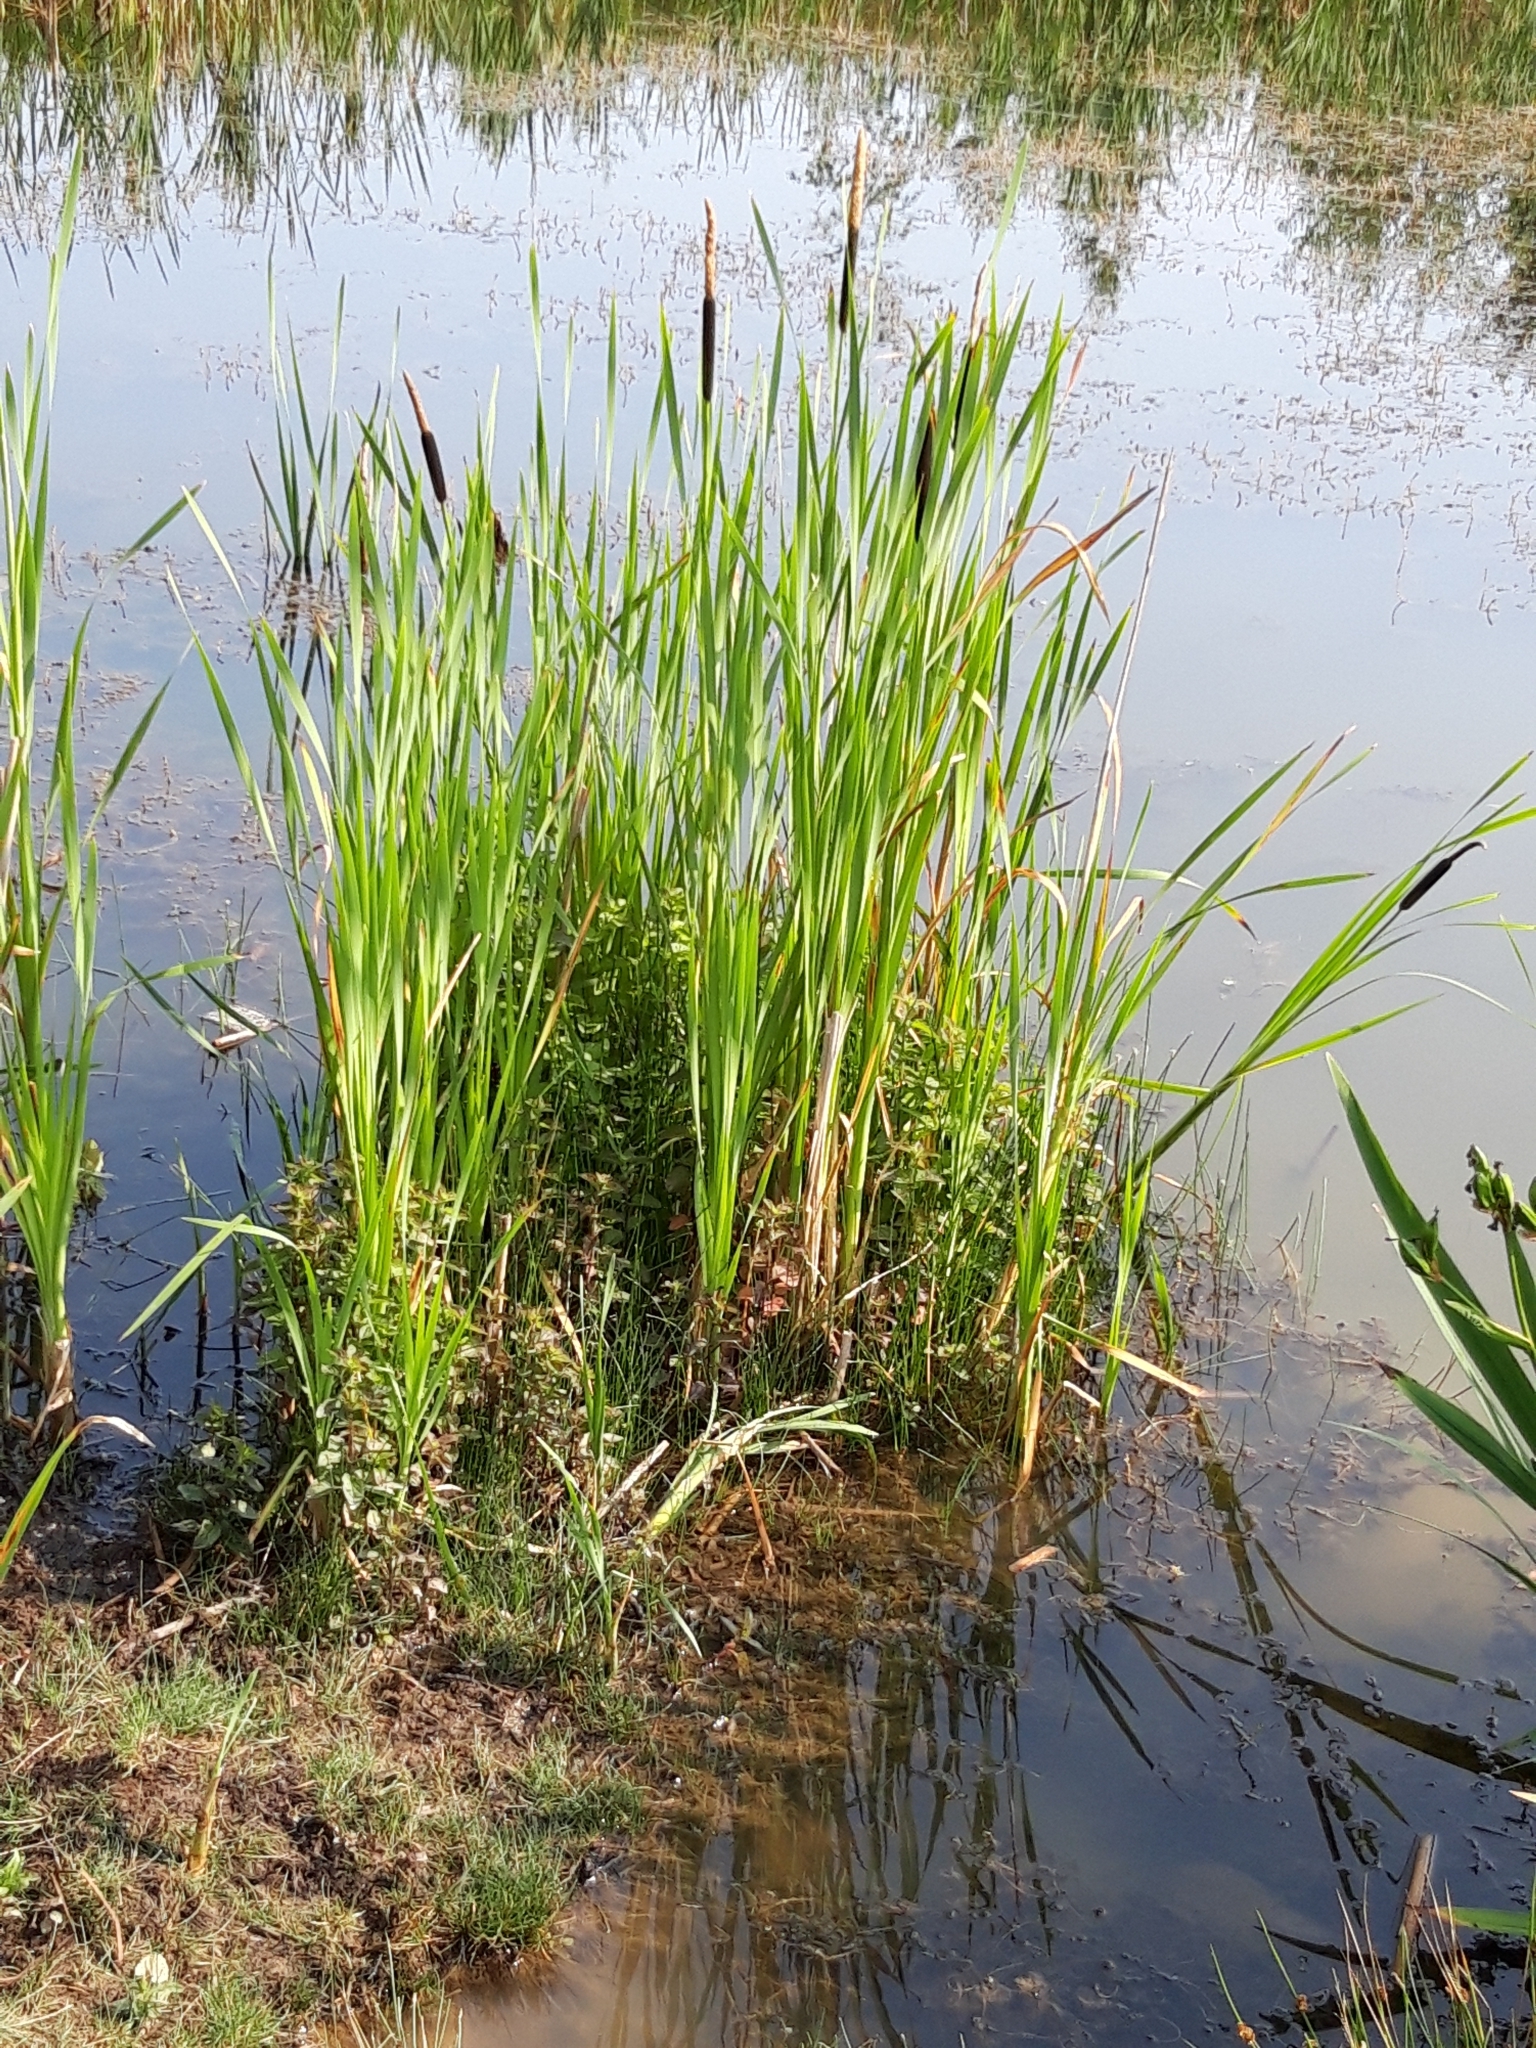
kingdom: Plantae
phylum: Tracheophyta
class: Liliopsida
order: Poales
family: Typhaceae
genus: Typha
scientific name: Typha latifolia
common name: Broadleaf cattail
